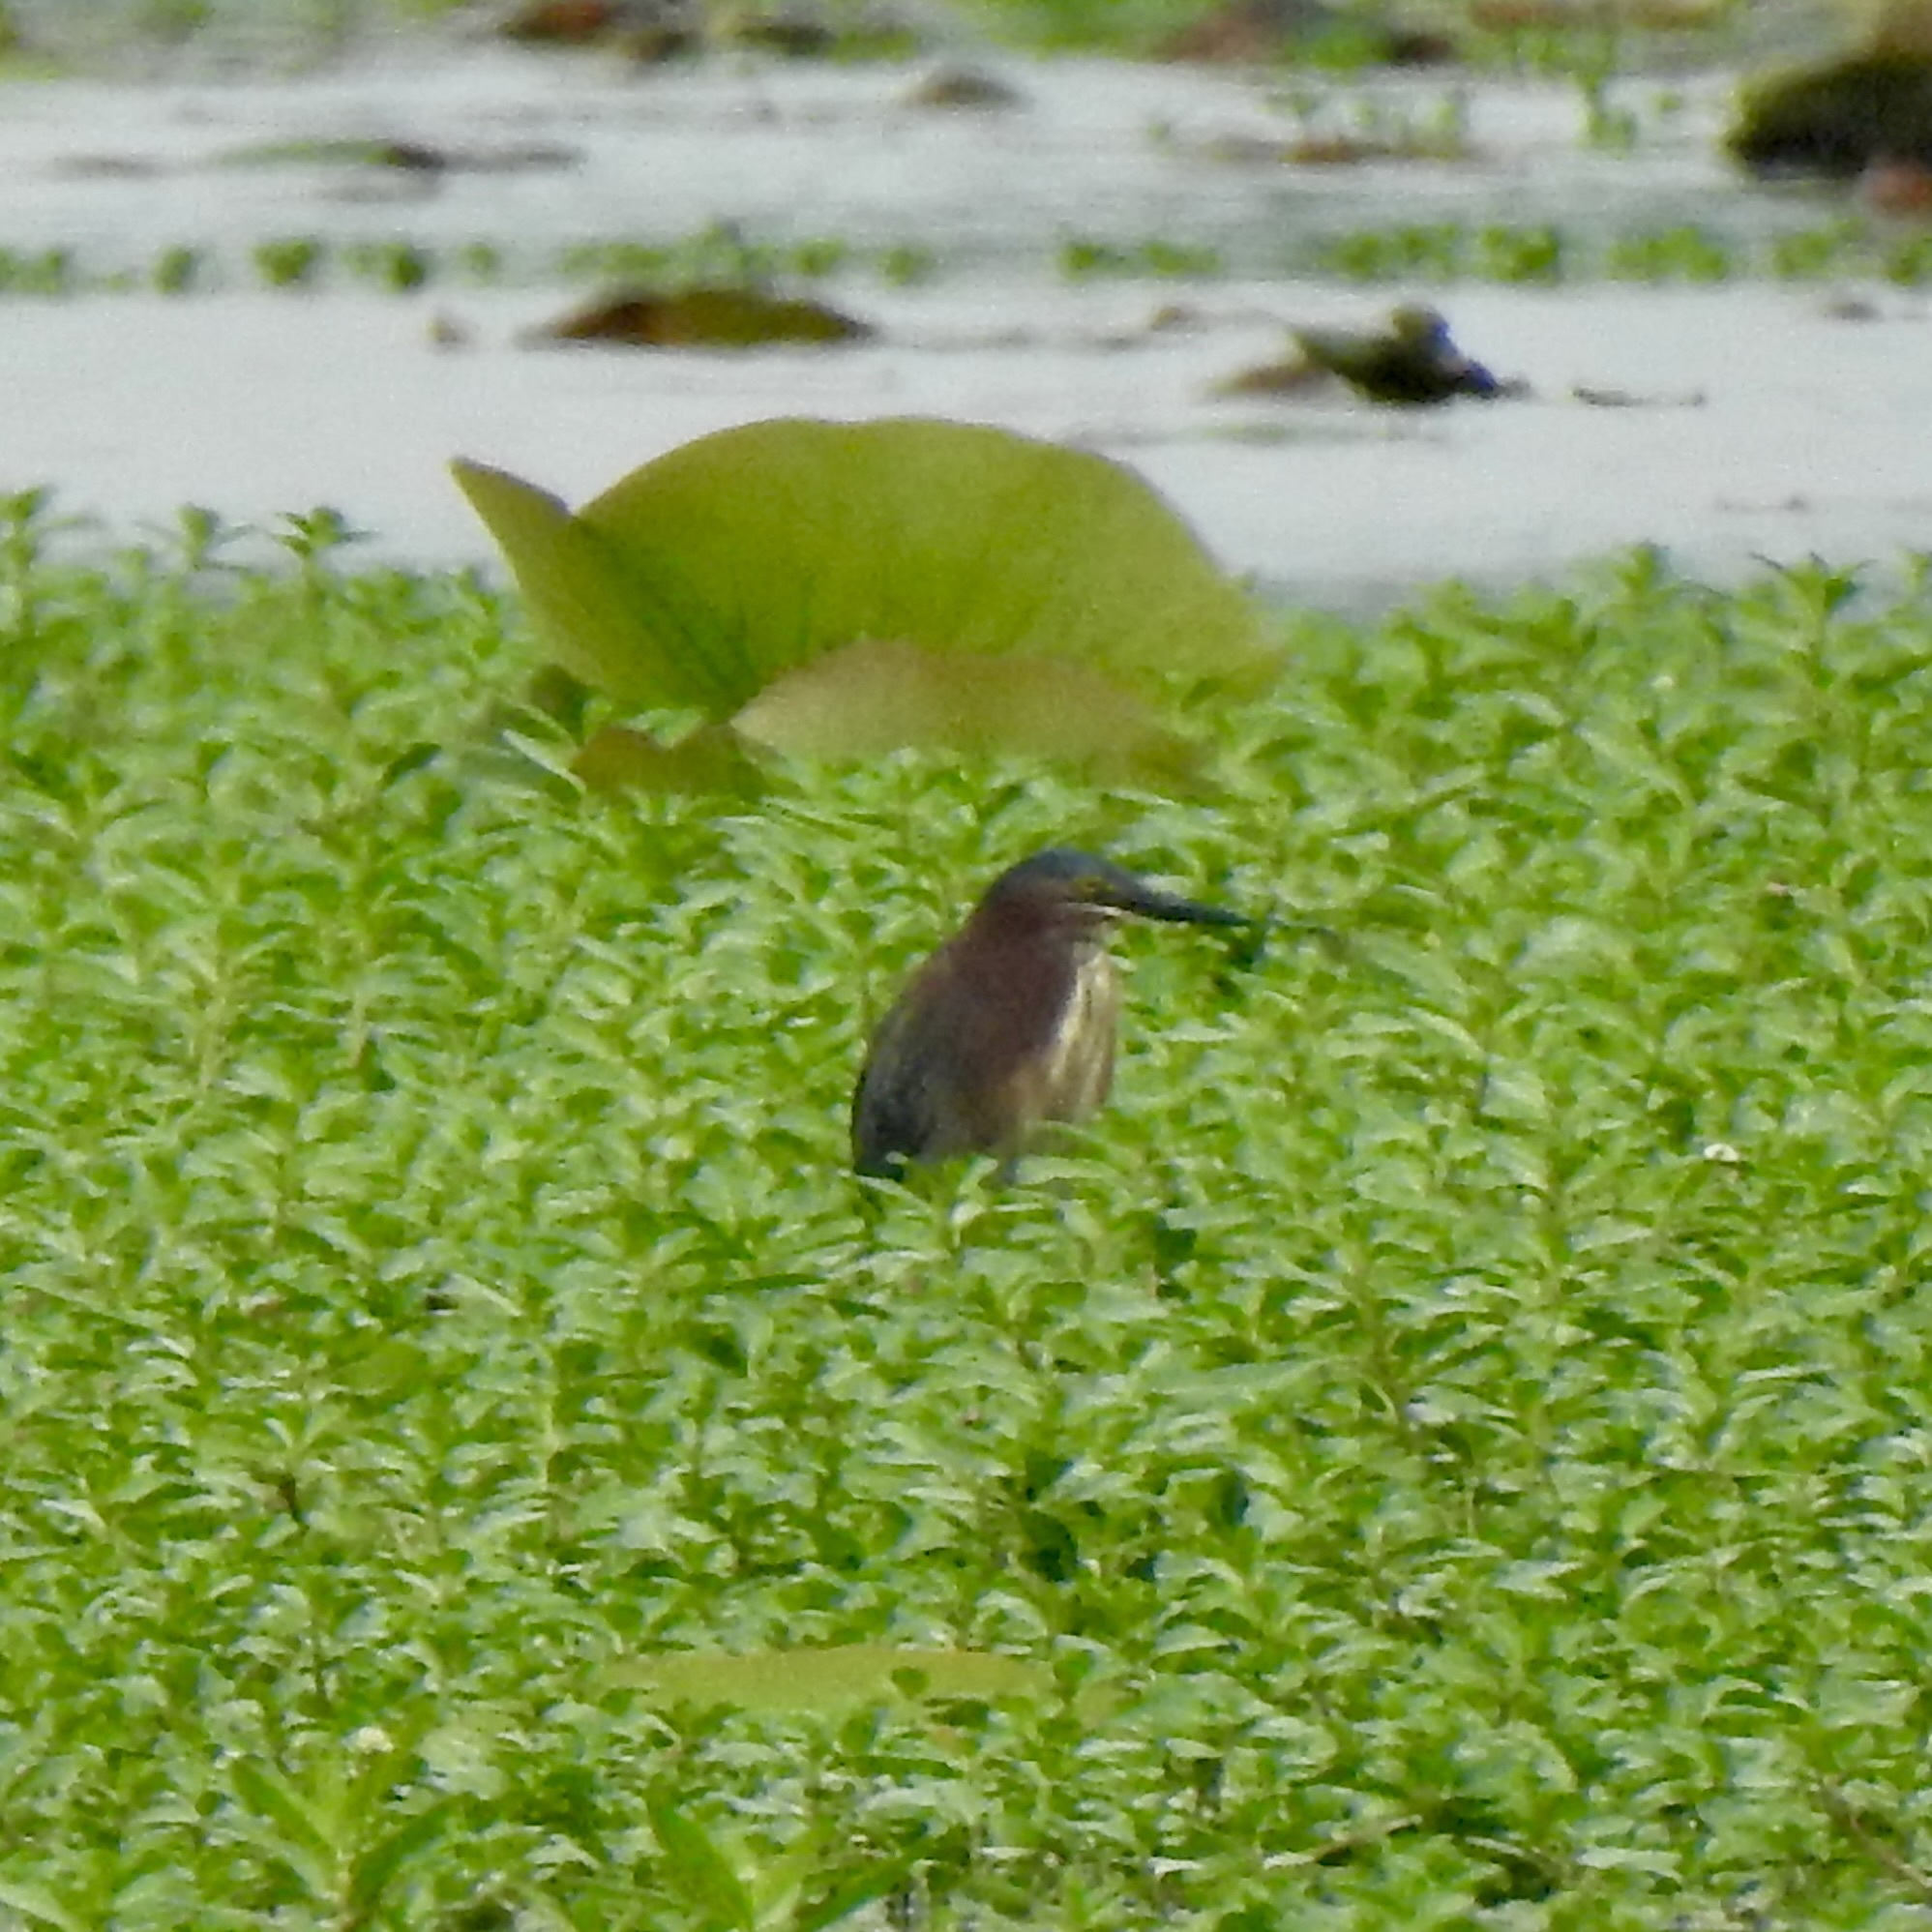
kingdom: Animalia
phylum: Chordata
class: Aves
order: Pelecaniformes
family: Ardeidae
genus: Butorides
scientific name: Butorides virescens
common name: Green heron
